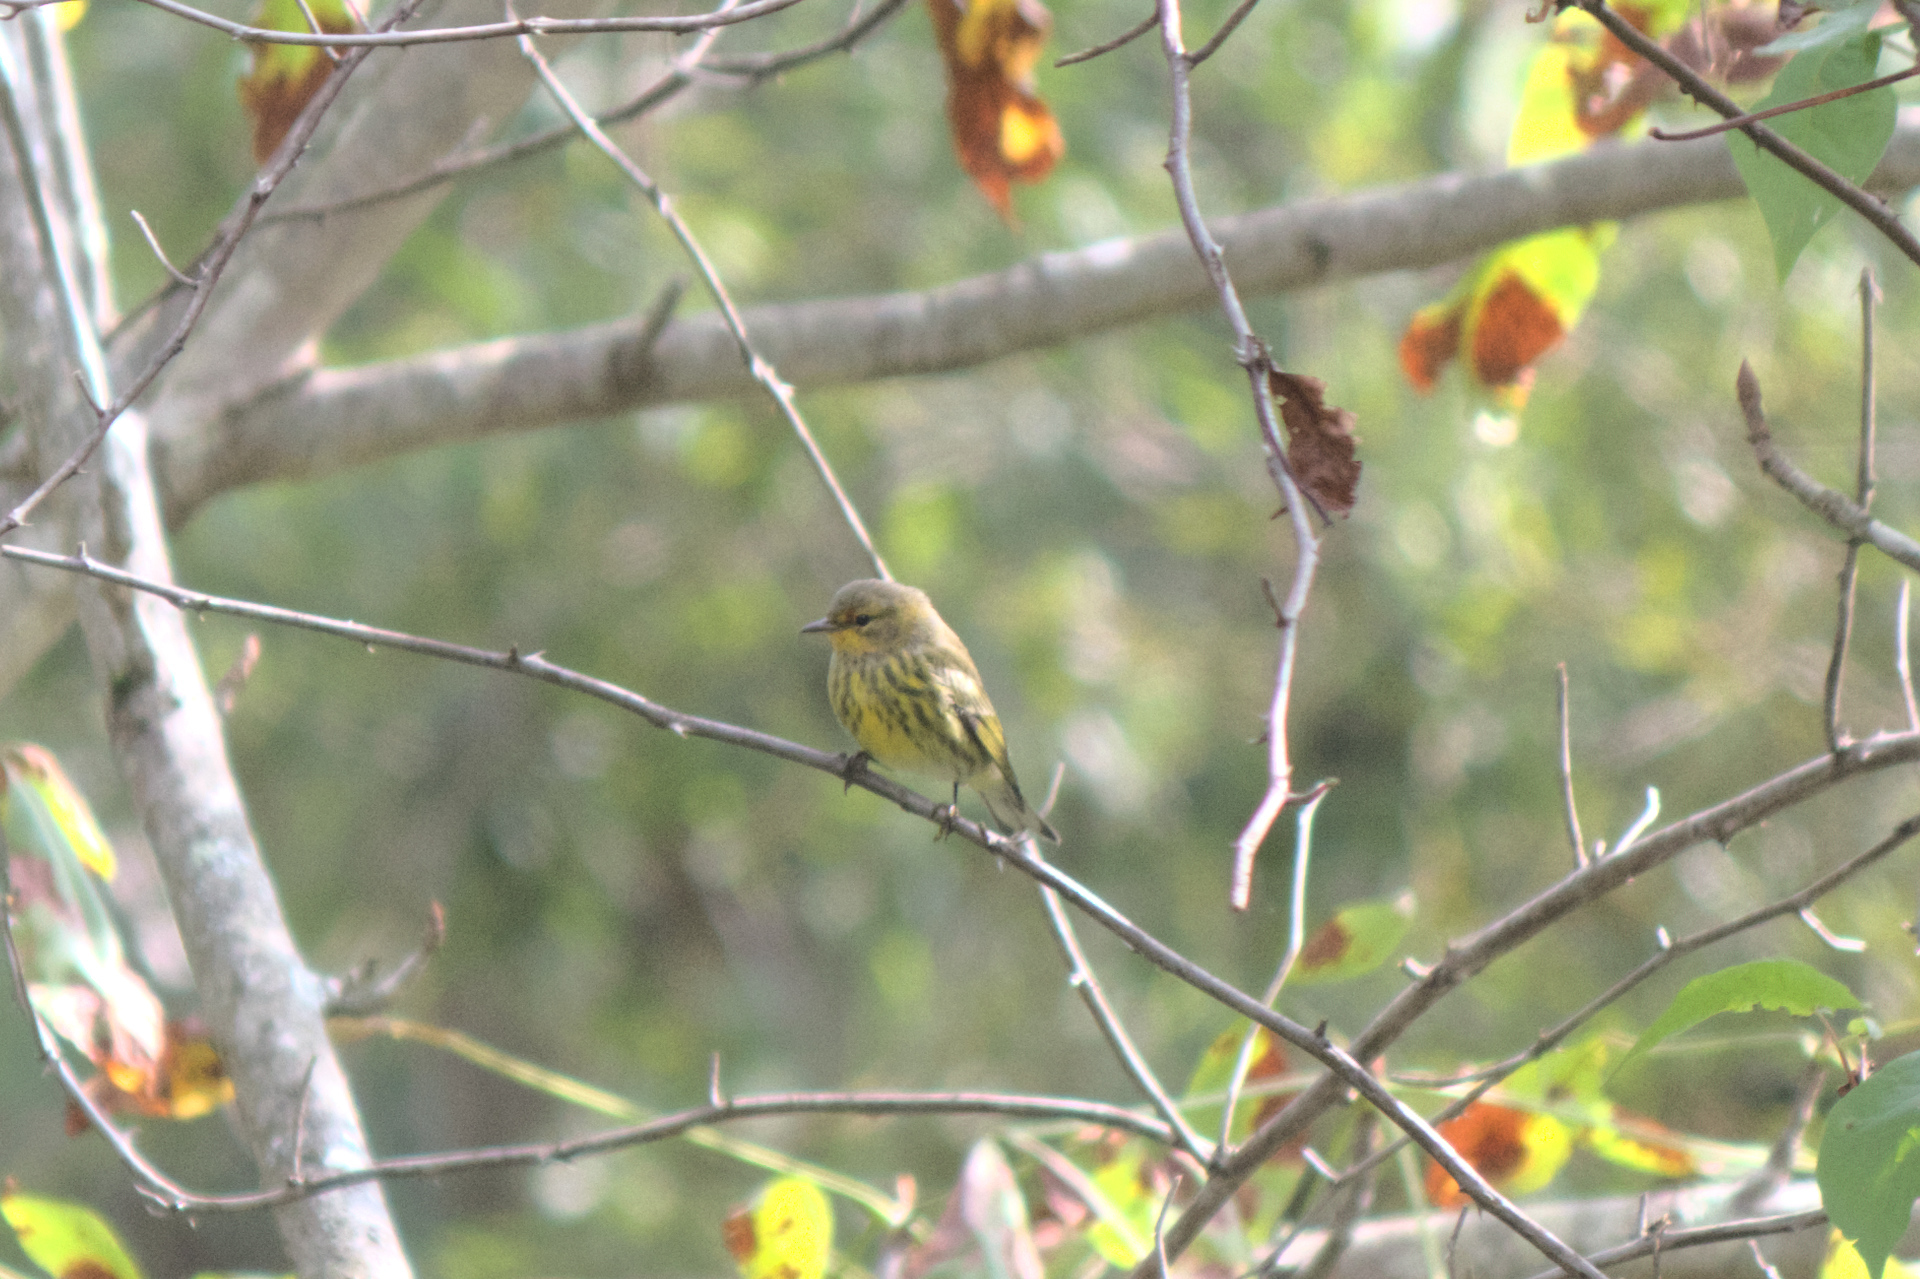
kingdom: Animalia
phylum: Chordata
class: Aves
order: Passeriformes
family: Parulidae
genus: Setophaga
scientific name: Setophaga tigrina
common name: Cape may warbler
